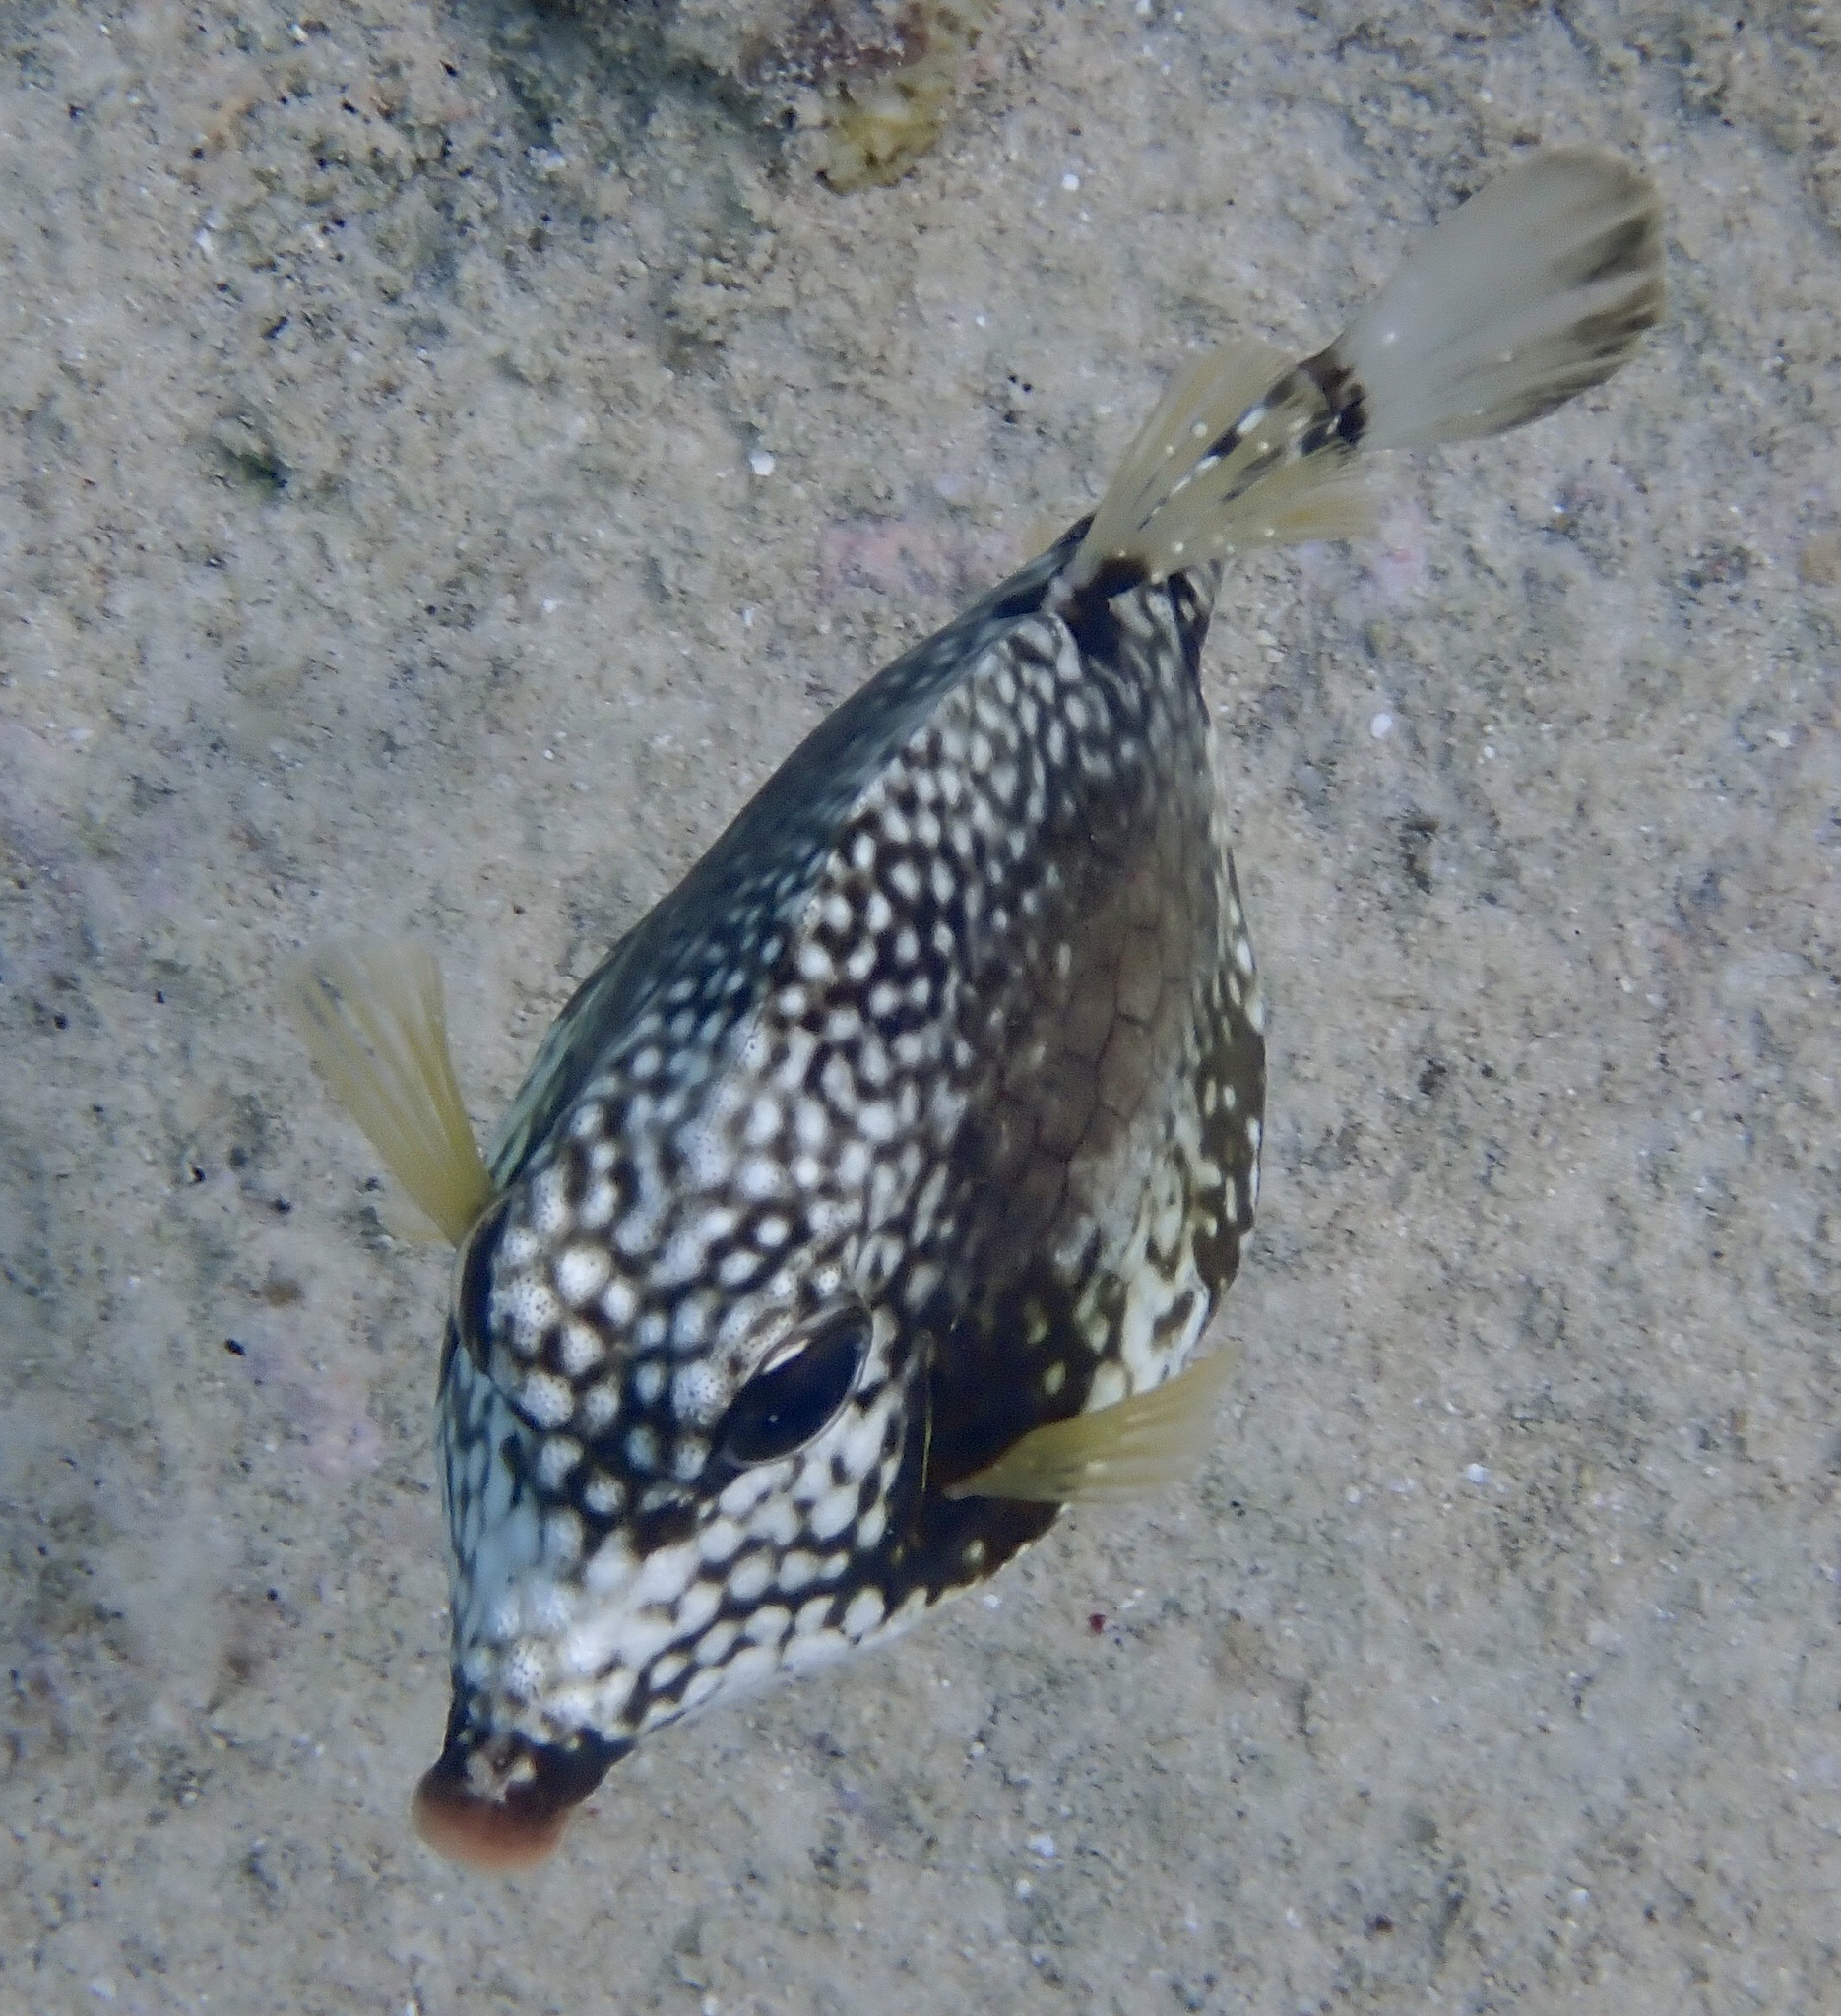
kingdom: Animalia
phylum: Chordata
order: Tetraodontiformes
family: Ostraciidae
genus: Lactophrys
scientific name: Lactophrys triqueter
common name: Smooth trunkfish
